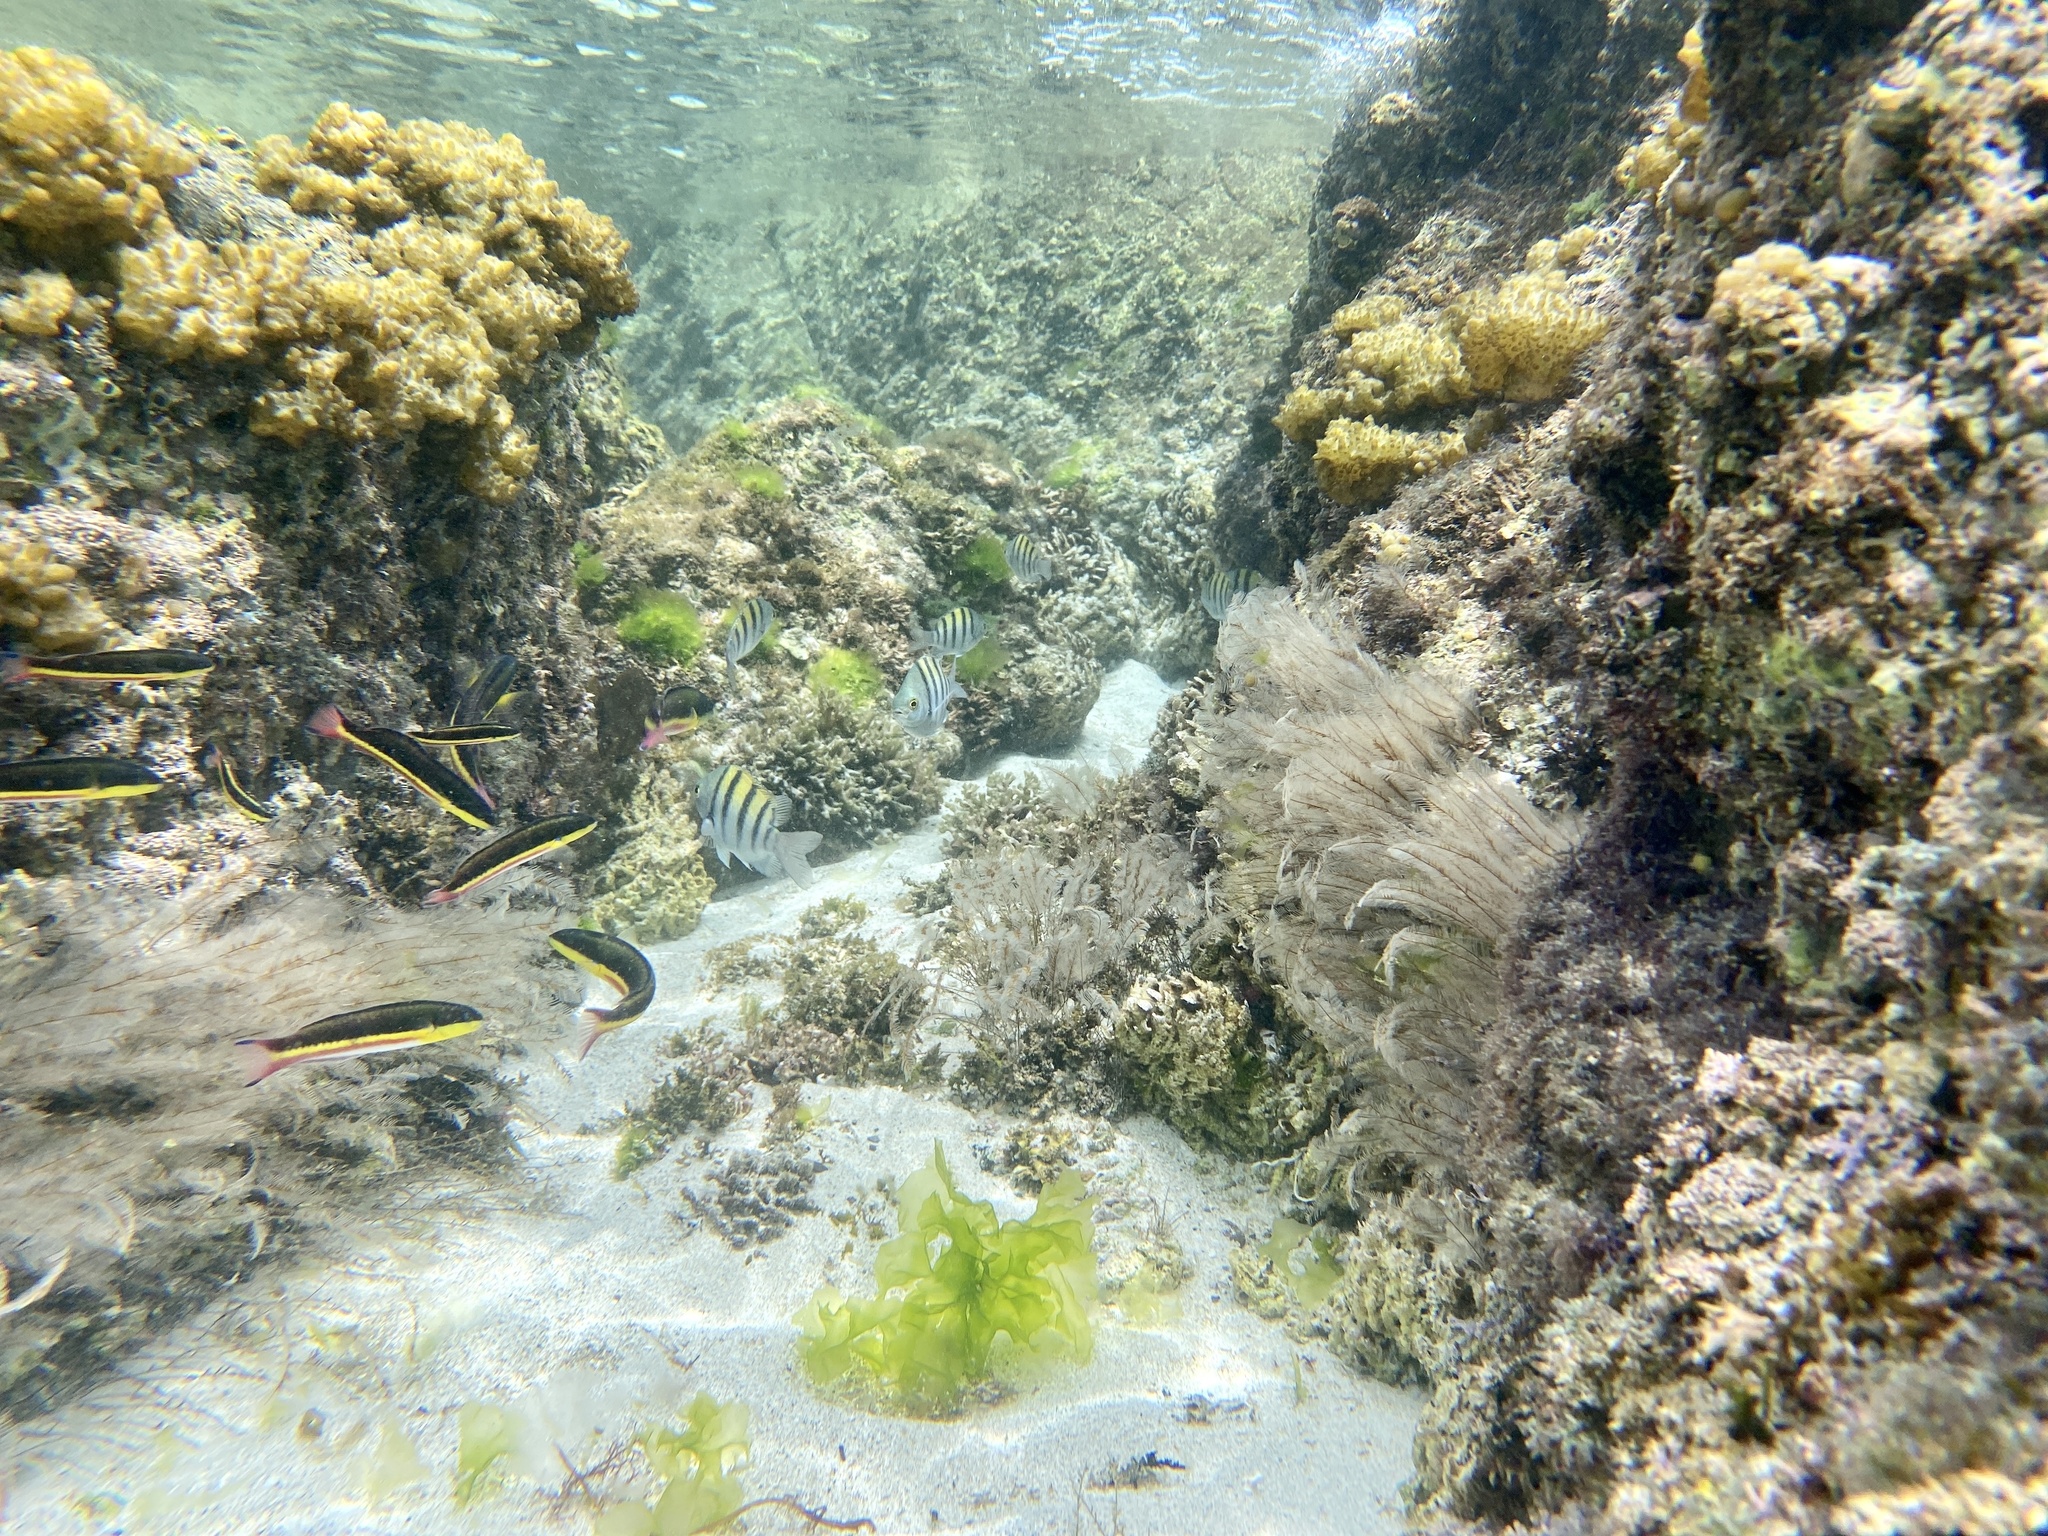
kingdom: Animalia
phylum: Chordata
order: Perciformes
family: Labridae
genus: Thalassoma
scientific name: Thalassoma lucasanum
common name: Cortez rainbow wrasse
